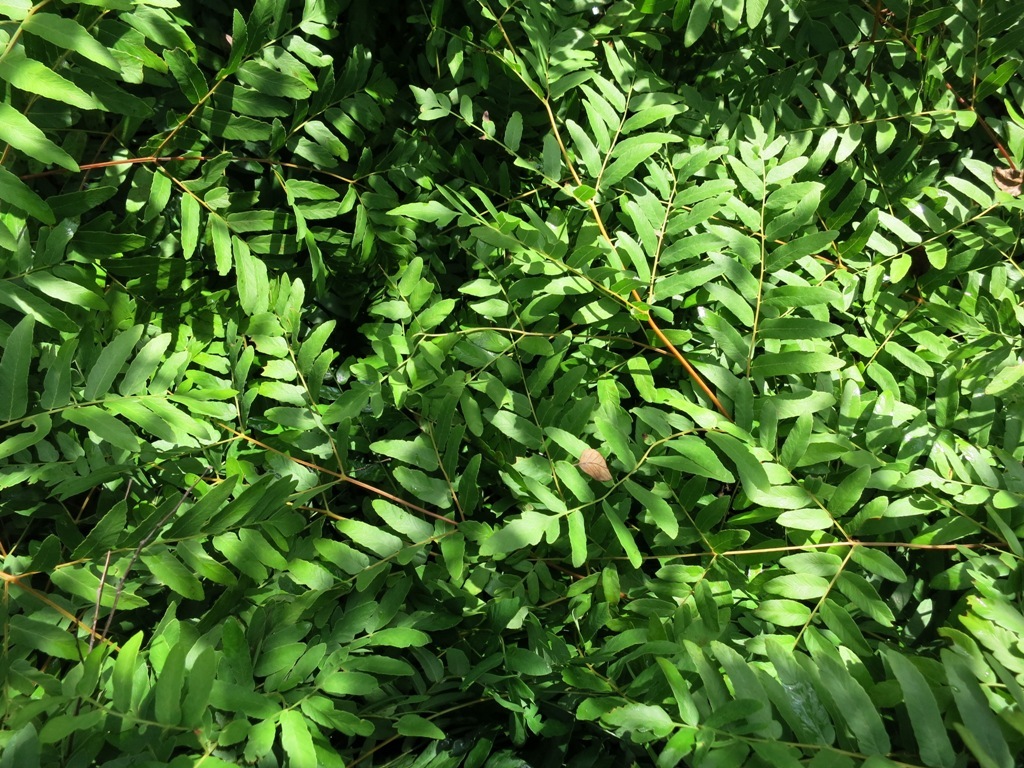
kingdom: Plantae
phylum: Tracheophyta
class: Polypodiopsida
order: Osmundales
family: Osmundaceae
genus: Osmunda
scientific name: Osmunda spectabilis
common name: American royal fern
